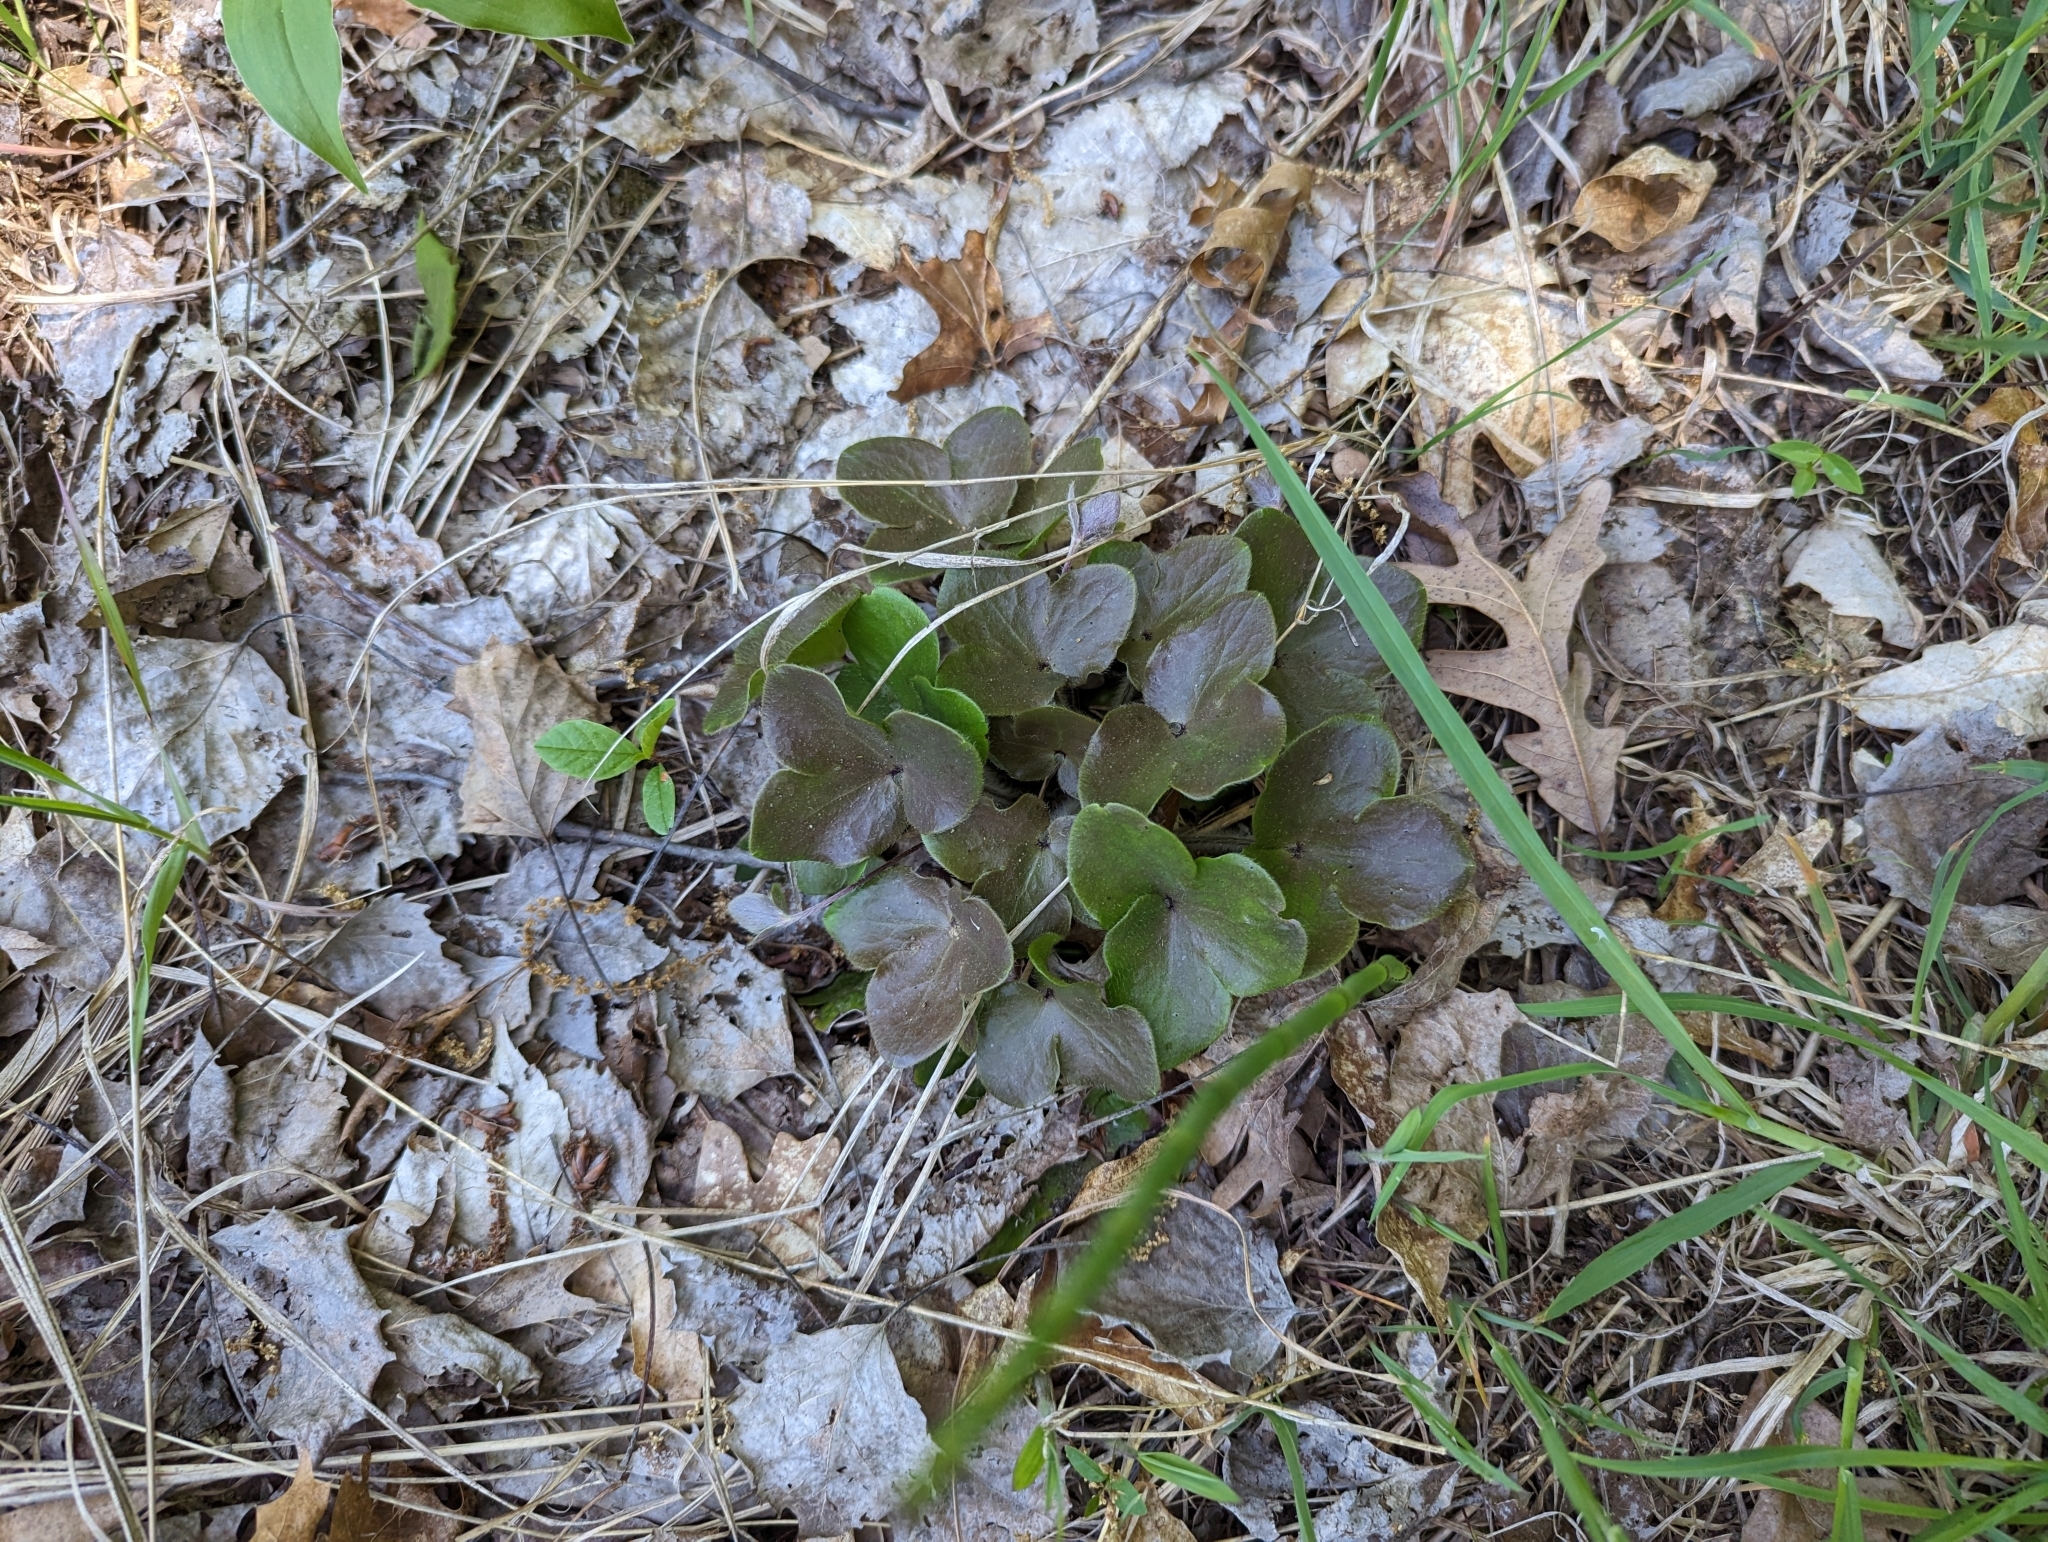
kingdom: Plantae
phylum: Tracheophyta
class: Magnoliopsida
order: Ranunculales
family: Ranunculaceae
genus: Hepatica
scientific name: Hepatica americana
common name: American hepatica
